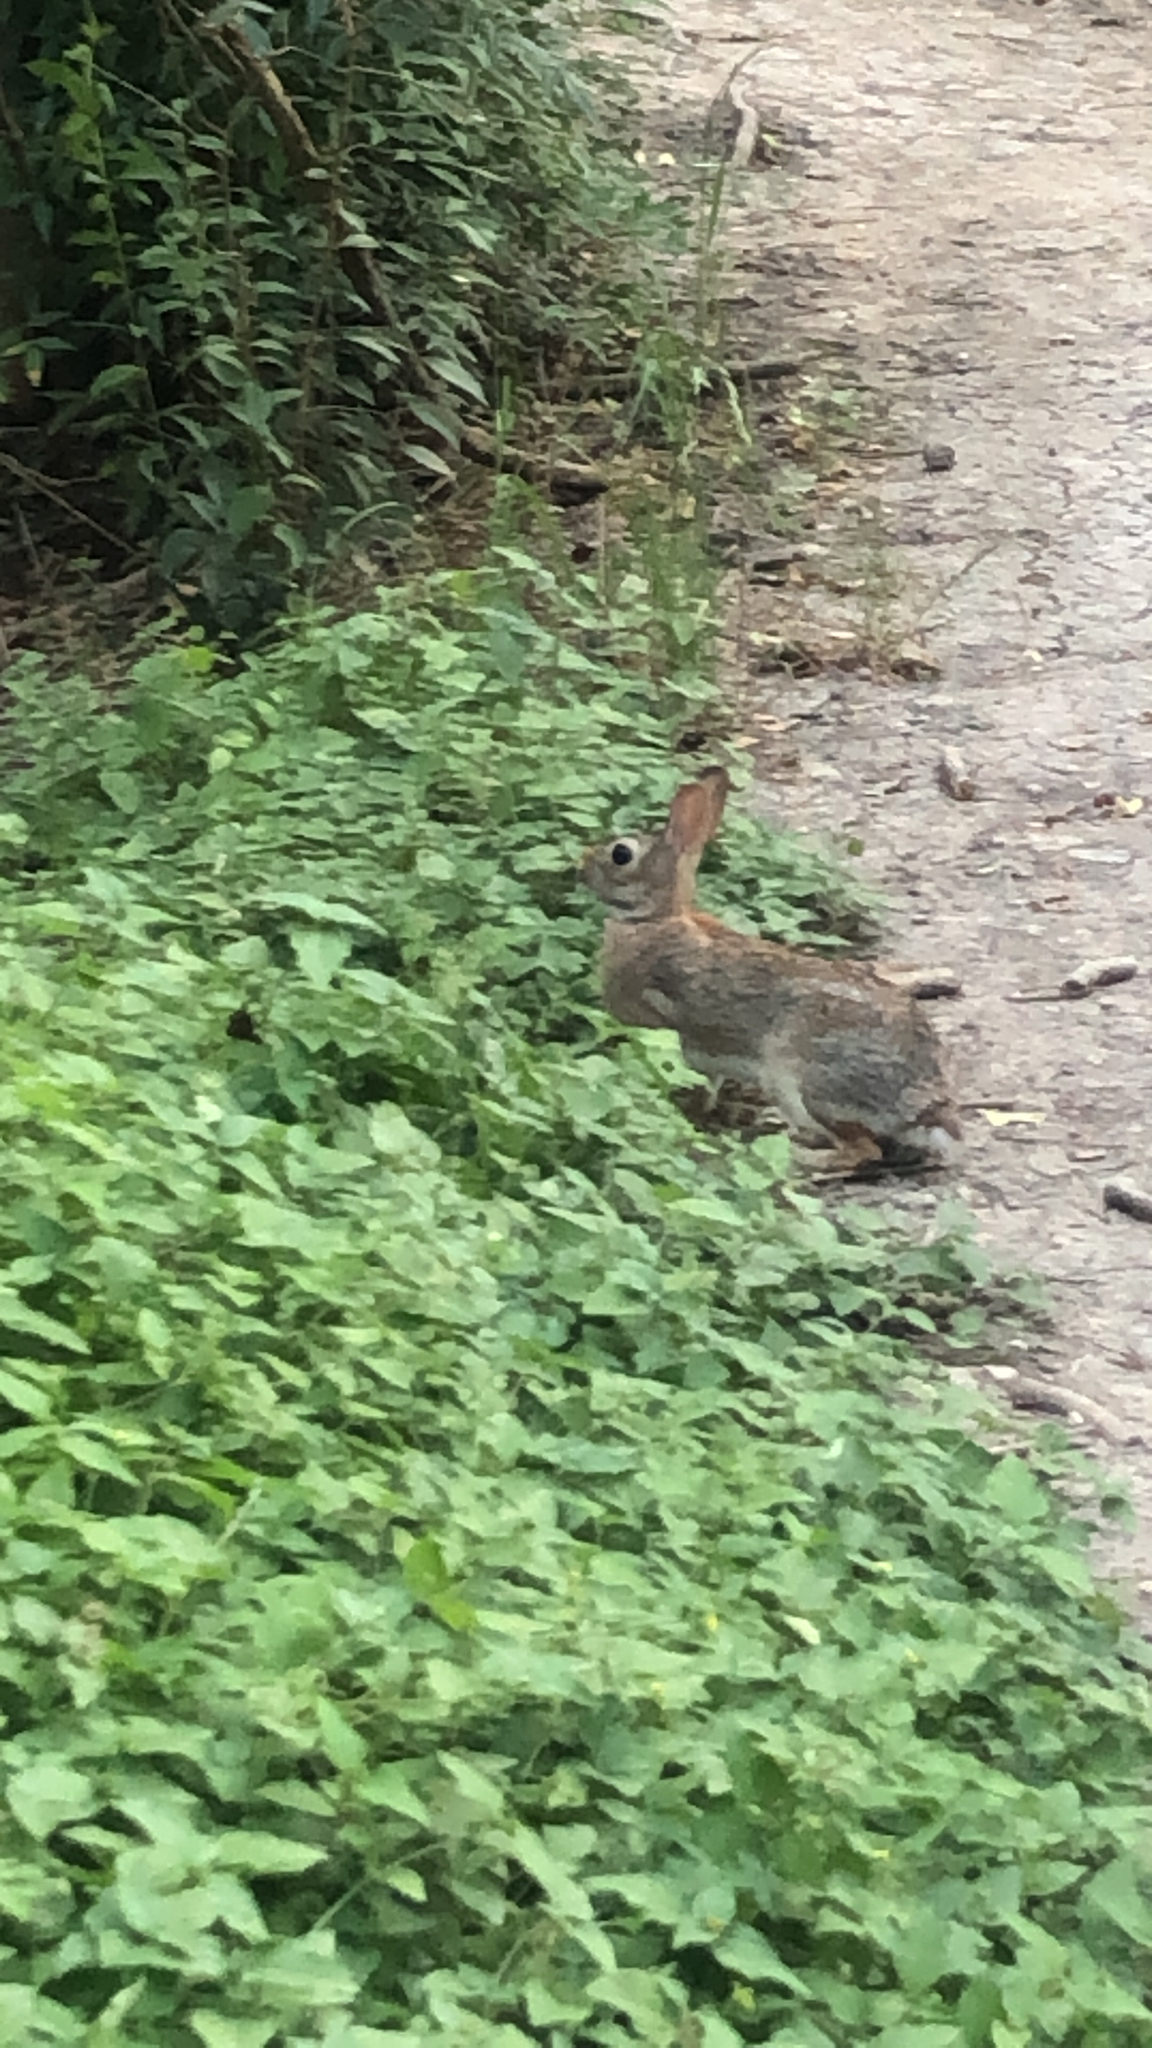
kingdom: Animalia
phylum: Chordata
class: Mammalia
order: Lagomorpha
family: Leporidae
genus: Sylvilagus
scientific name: Sylvilagus floridanus
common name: Eastern cottontail
